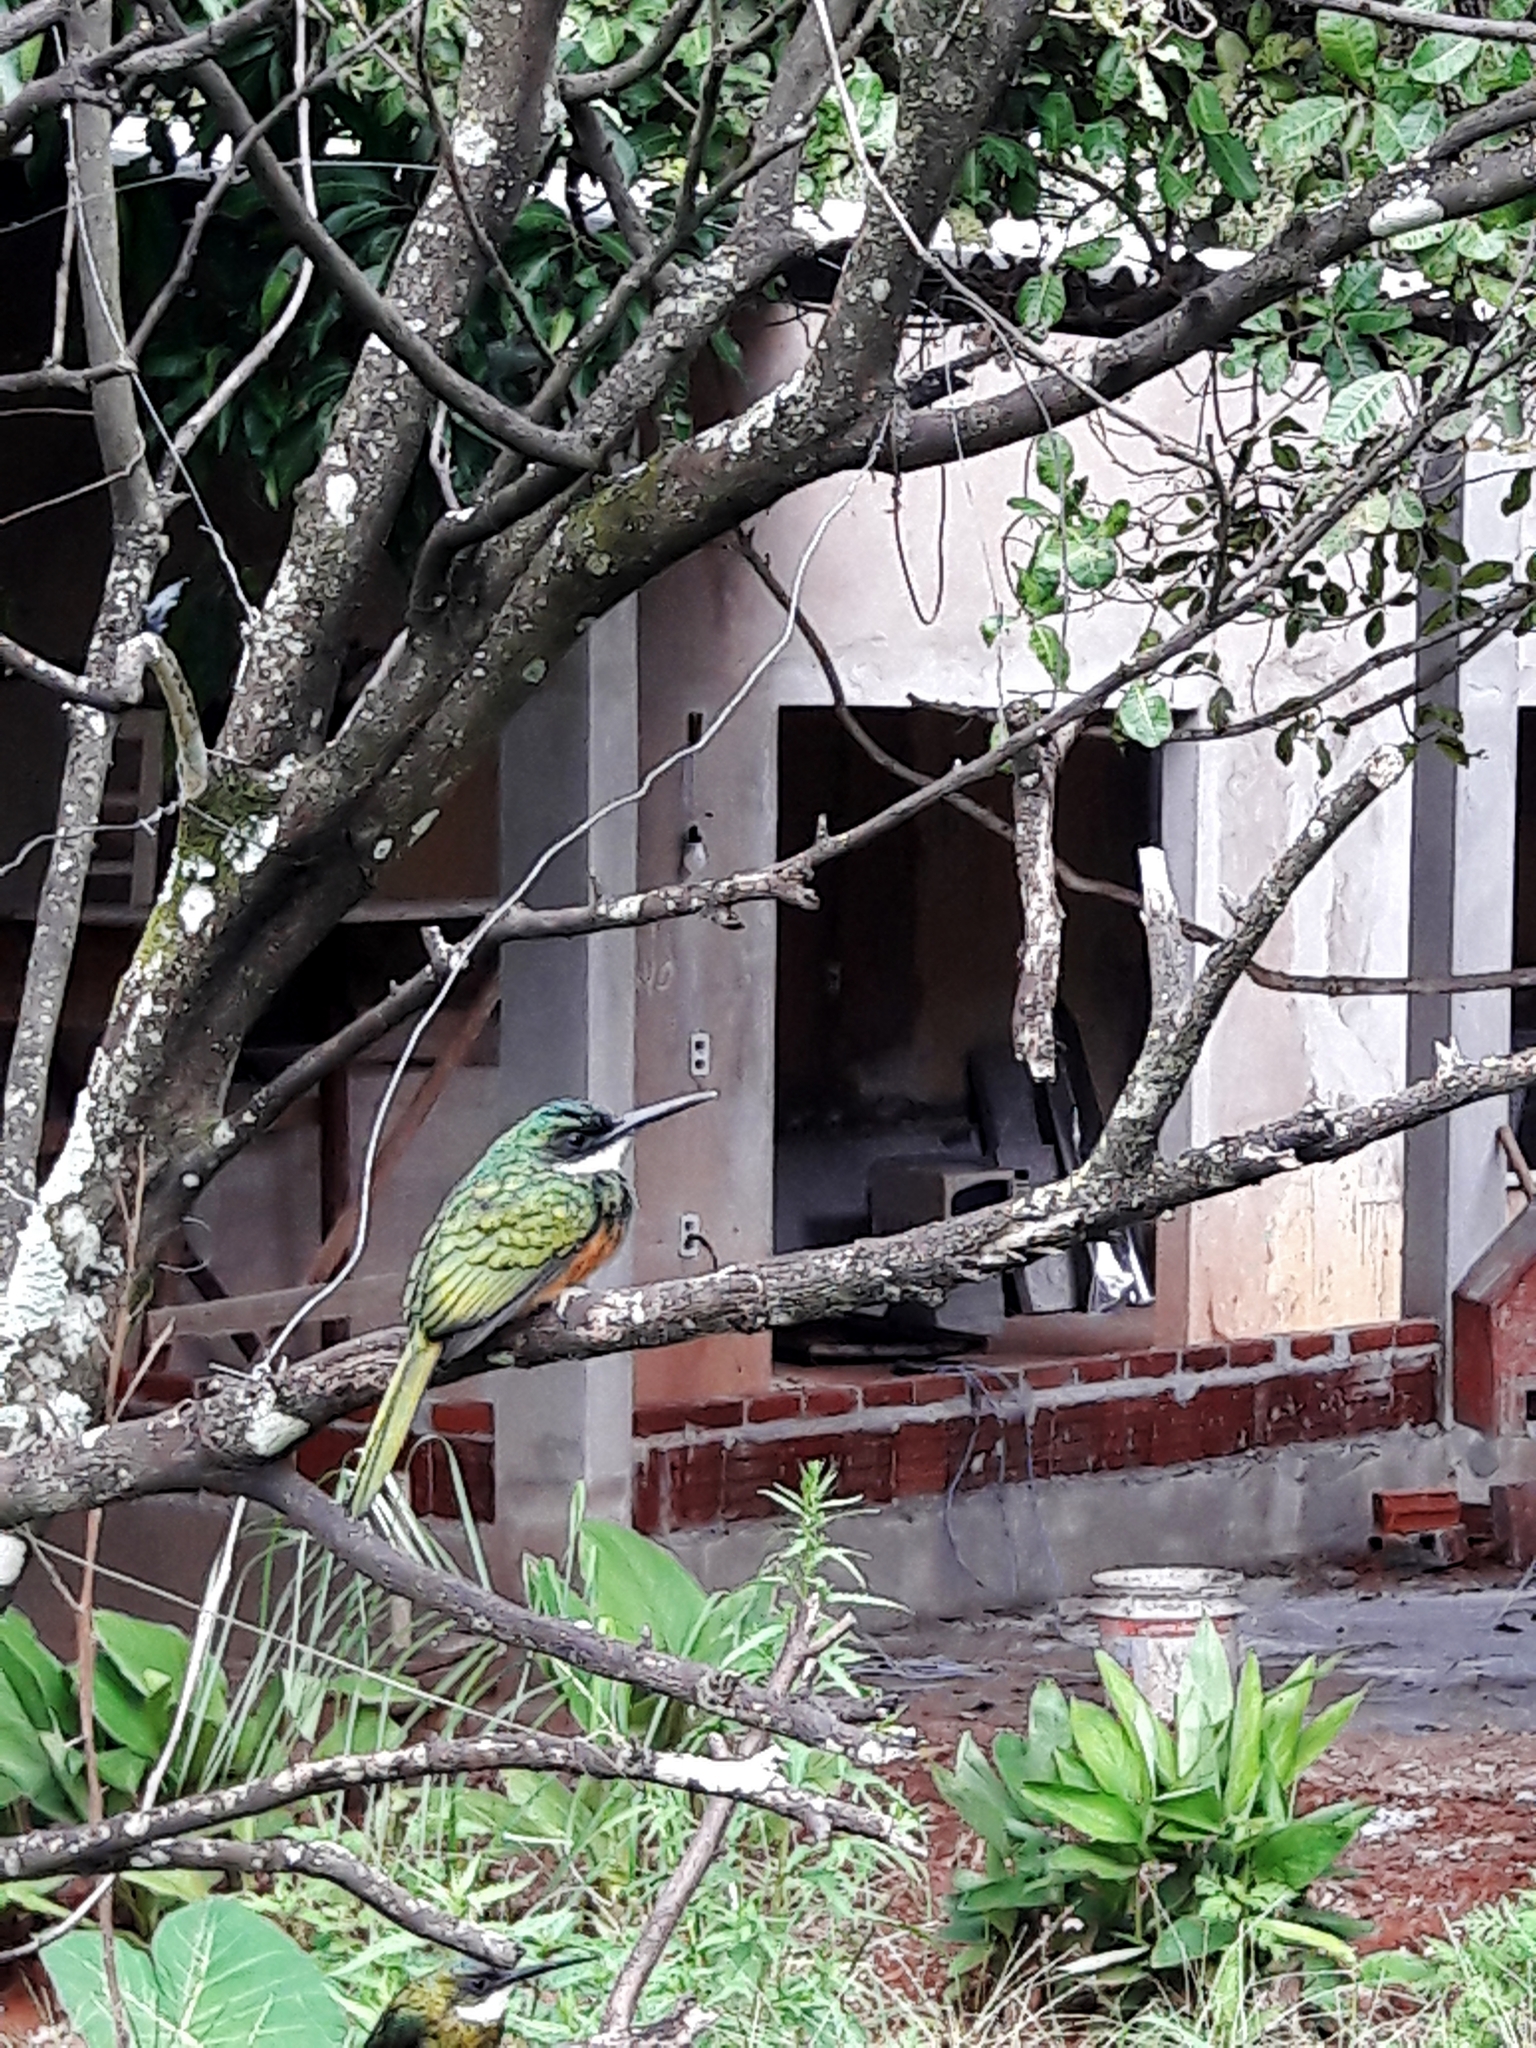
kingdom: Animalia
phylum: Chordata
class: Aves
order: Piciformes
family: Galbulidae
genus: Galbula
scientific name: Galbula ruficauda
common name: Rufous-tailed jacamar
